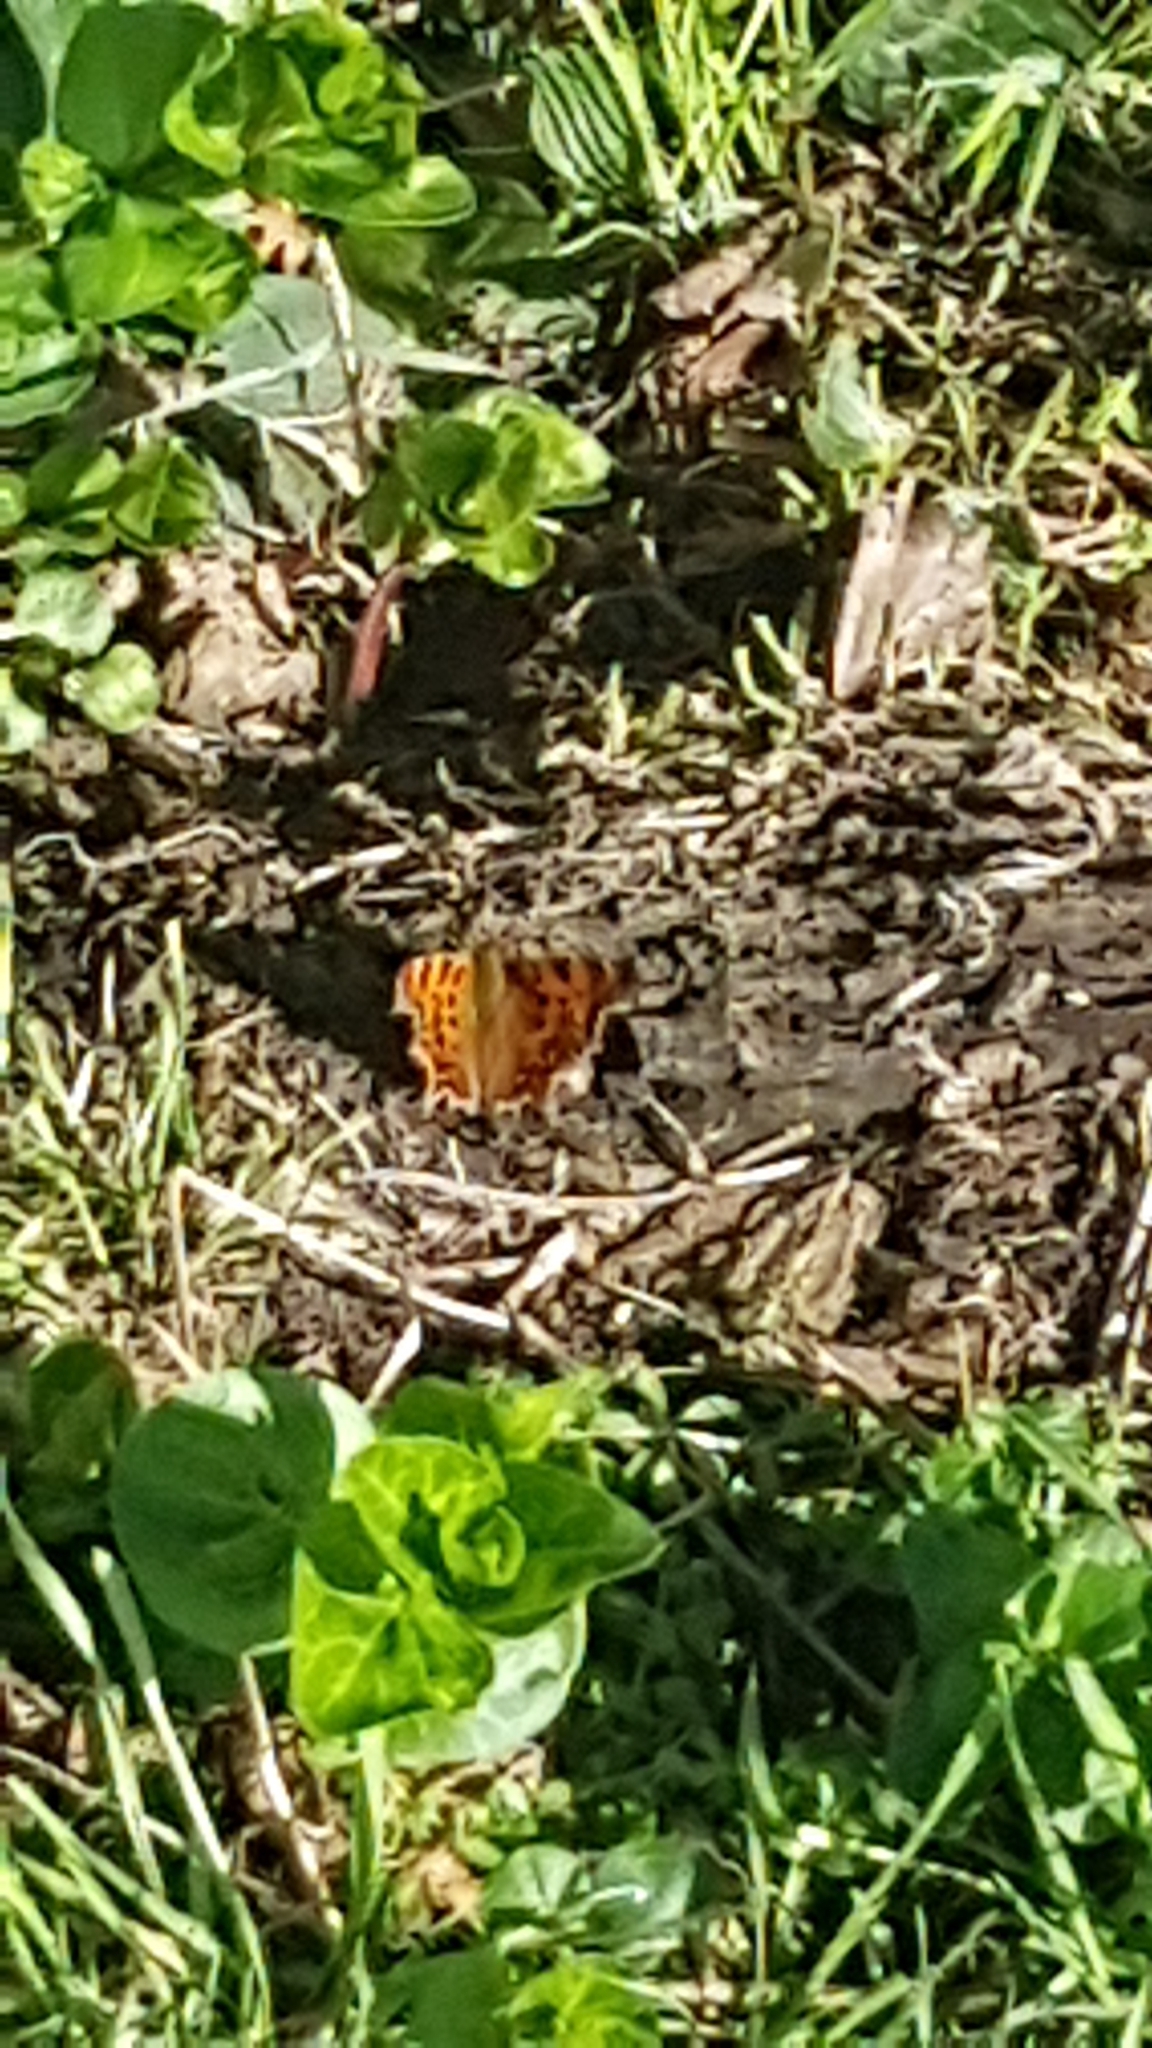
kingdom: Animalia
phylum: Arthropoda
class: Insecta
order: Lepidoptera
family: Nymphalidae
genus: Polygonia
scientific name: Polygonia c-album
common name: Comma
